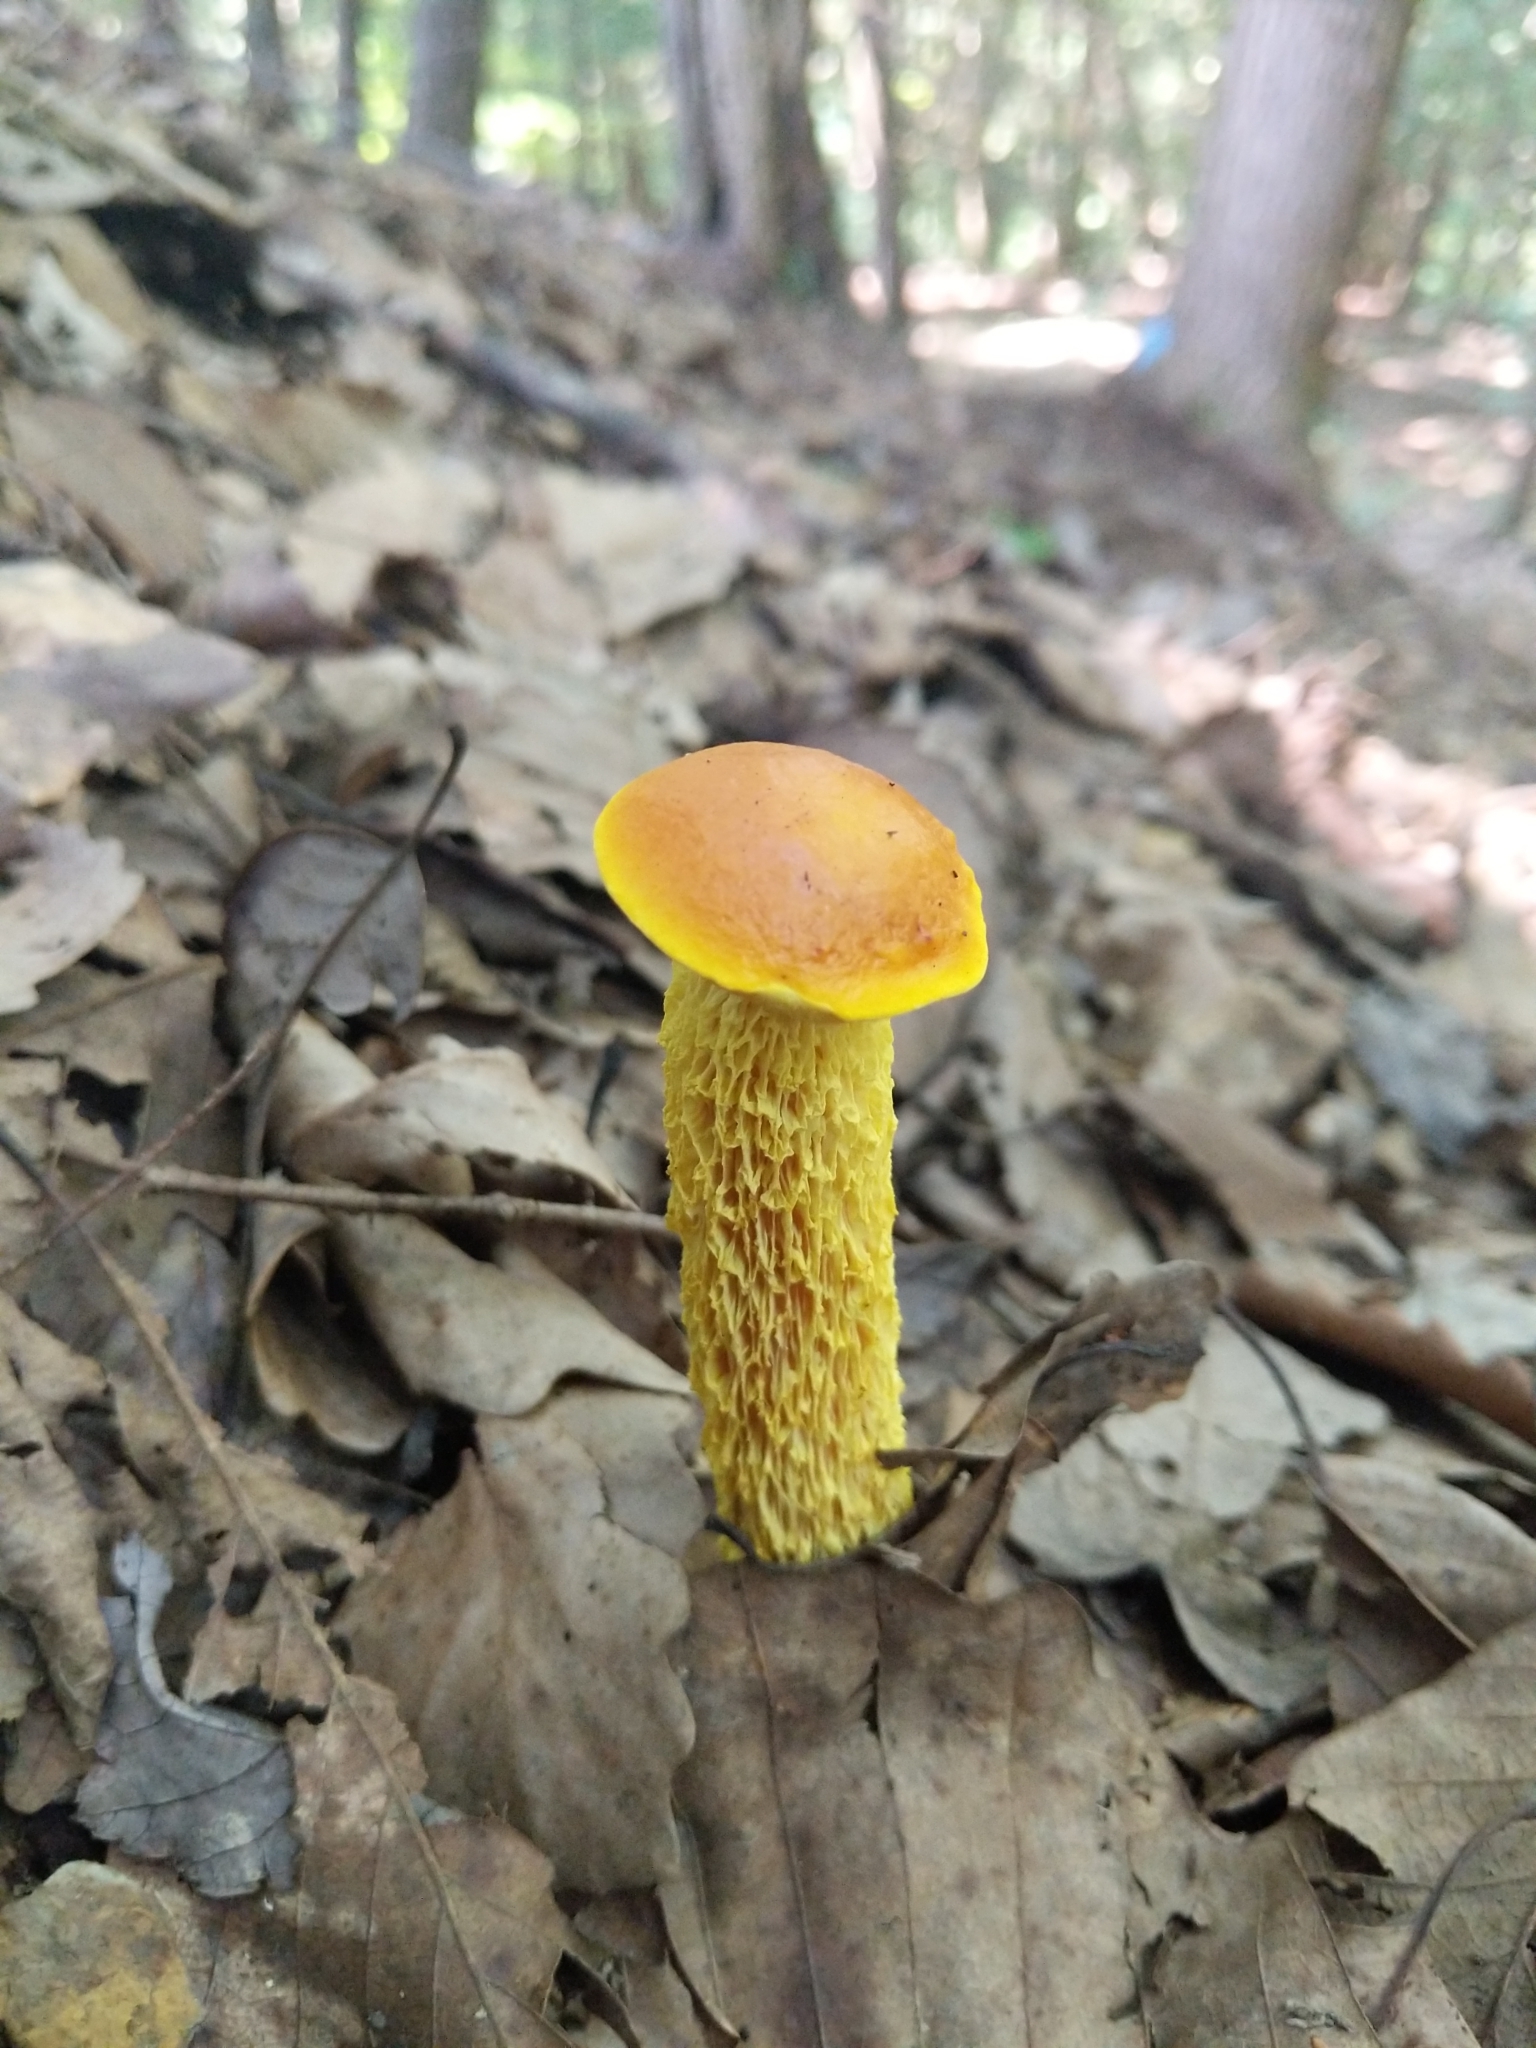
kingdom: Fungi
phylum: Basidiomycota
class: Agaricomycetes
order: Boletales
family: Boletaceae
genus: Aureoboletus
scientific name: Aureoboletus betula
